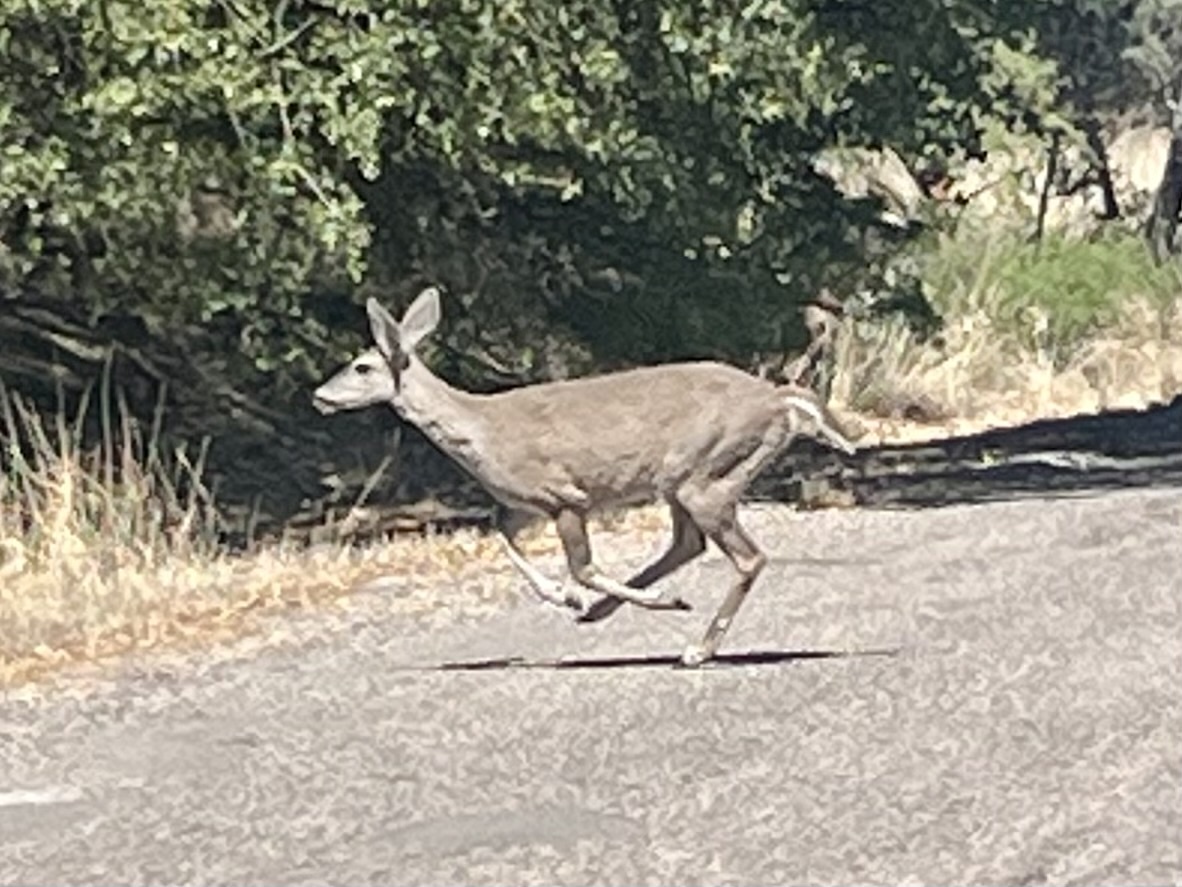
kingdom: Animalia
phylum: Chordata
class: Mammalia
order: Artiodactyla
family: Cervidae
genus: Odocoileus
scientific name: Odocoileus virginianus
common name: White-tailed deer
